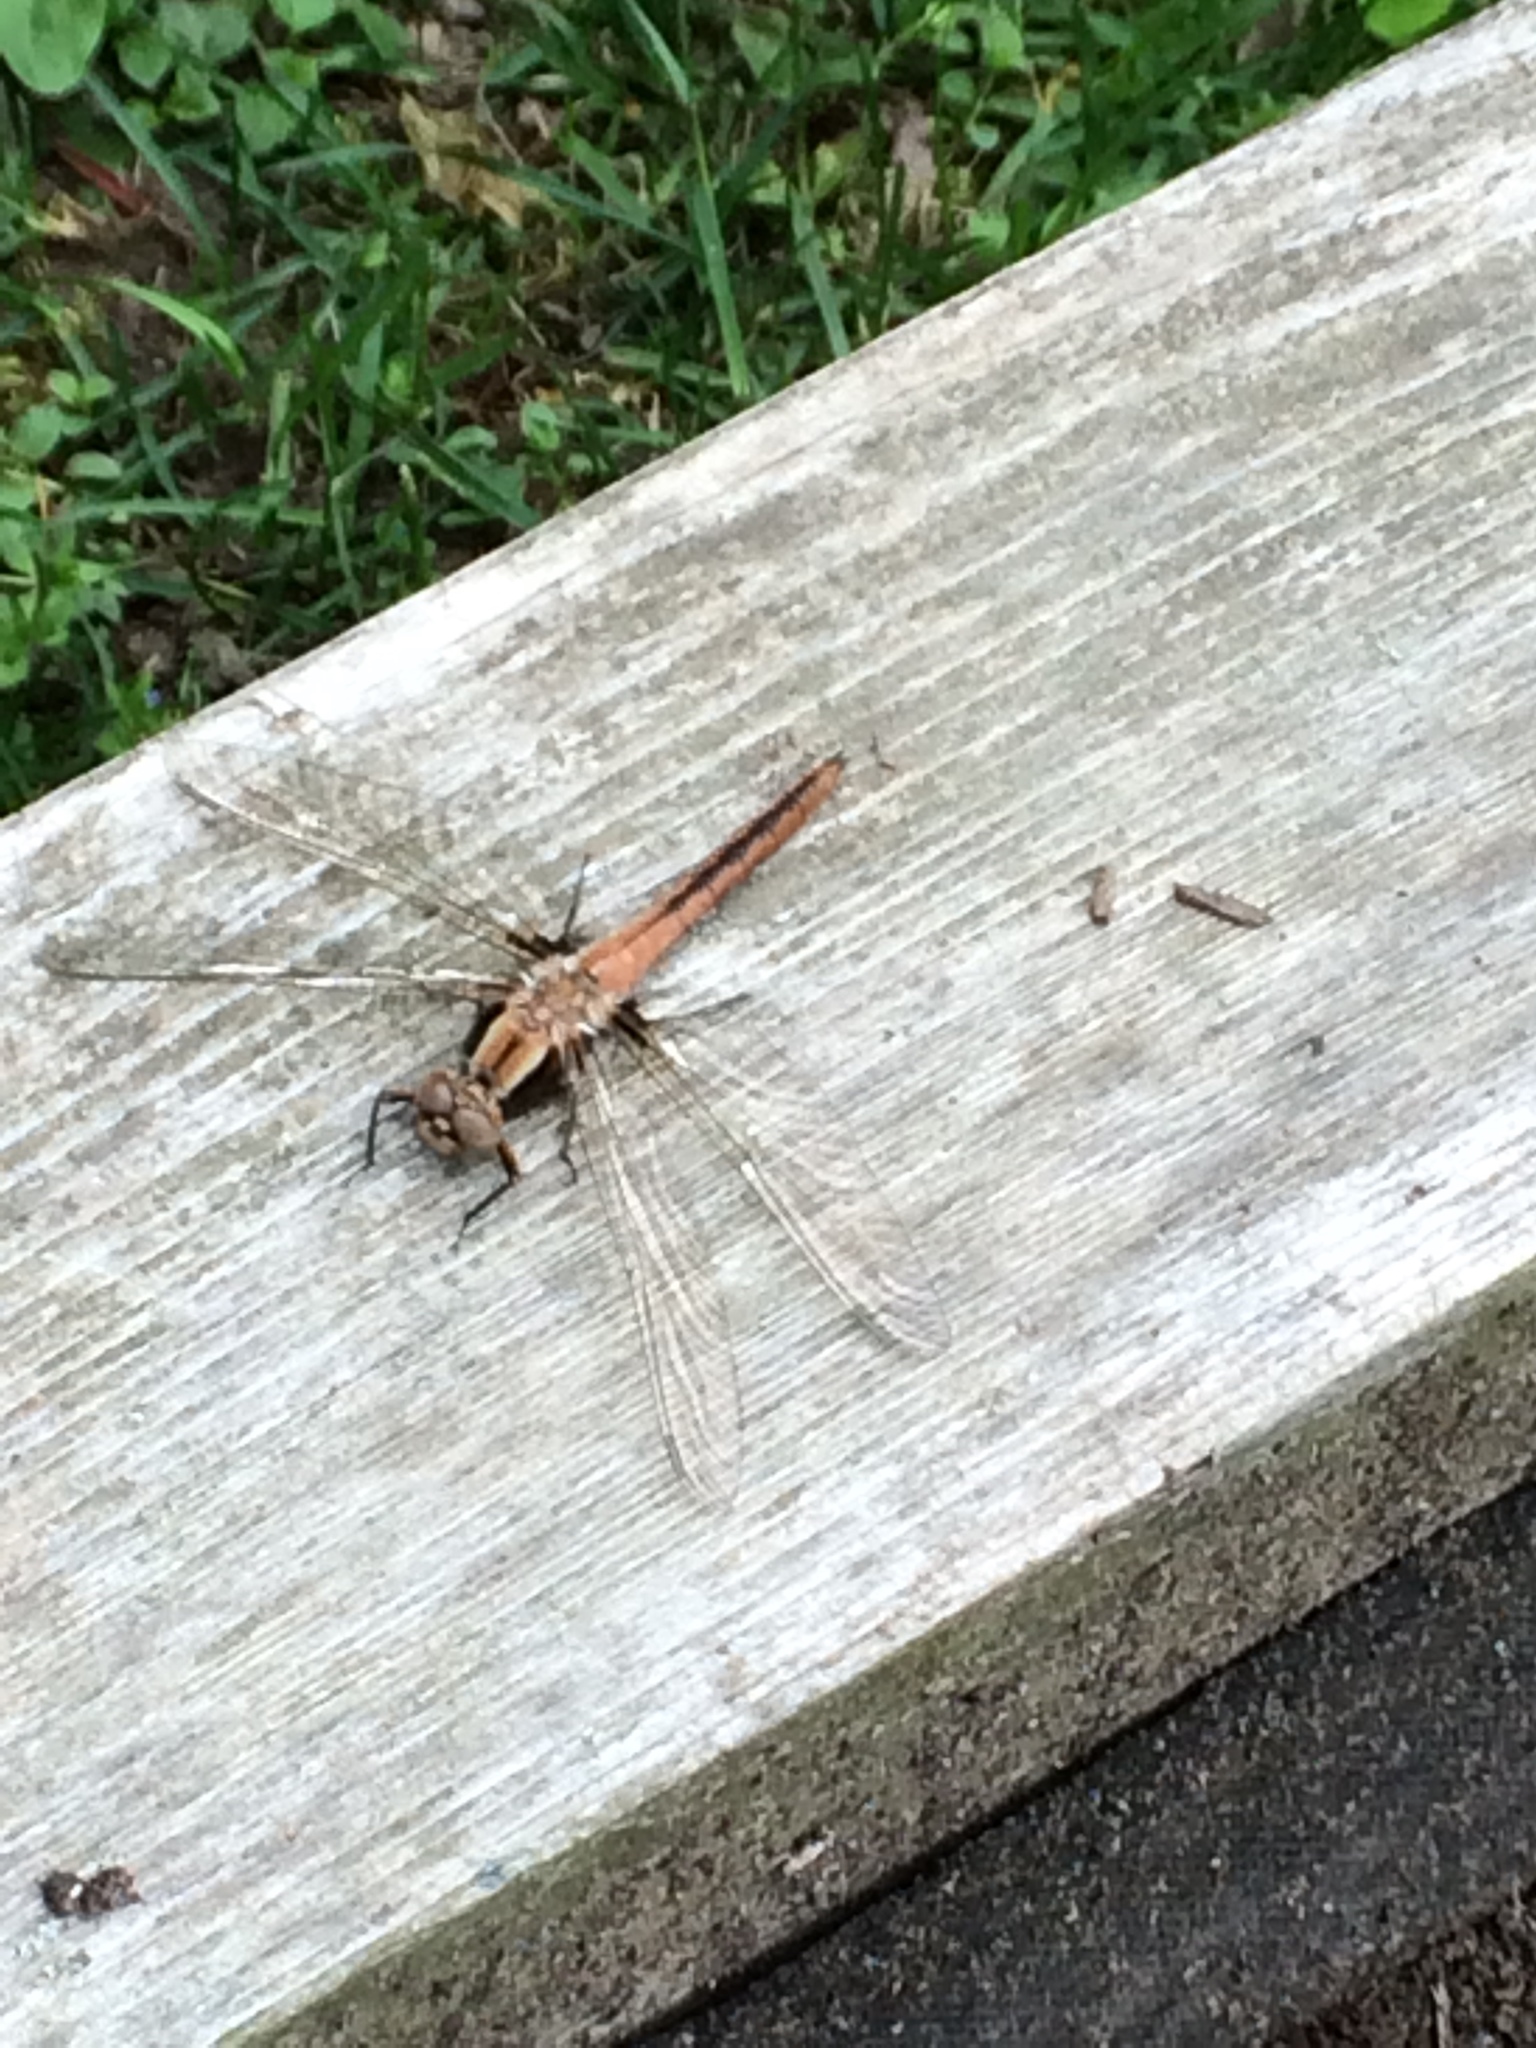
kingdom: Animalia
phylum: Arthropoda
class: Insecta
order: Odonata
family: Libellulidae
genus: Ladona
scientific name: Ladona julia
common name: Chalk-fronted corporal
